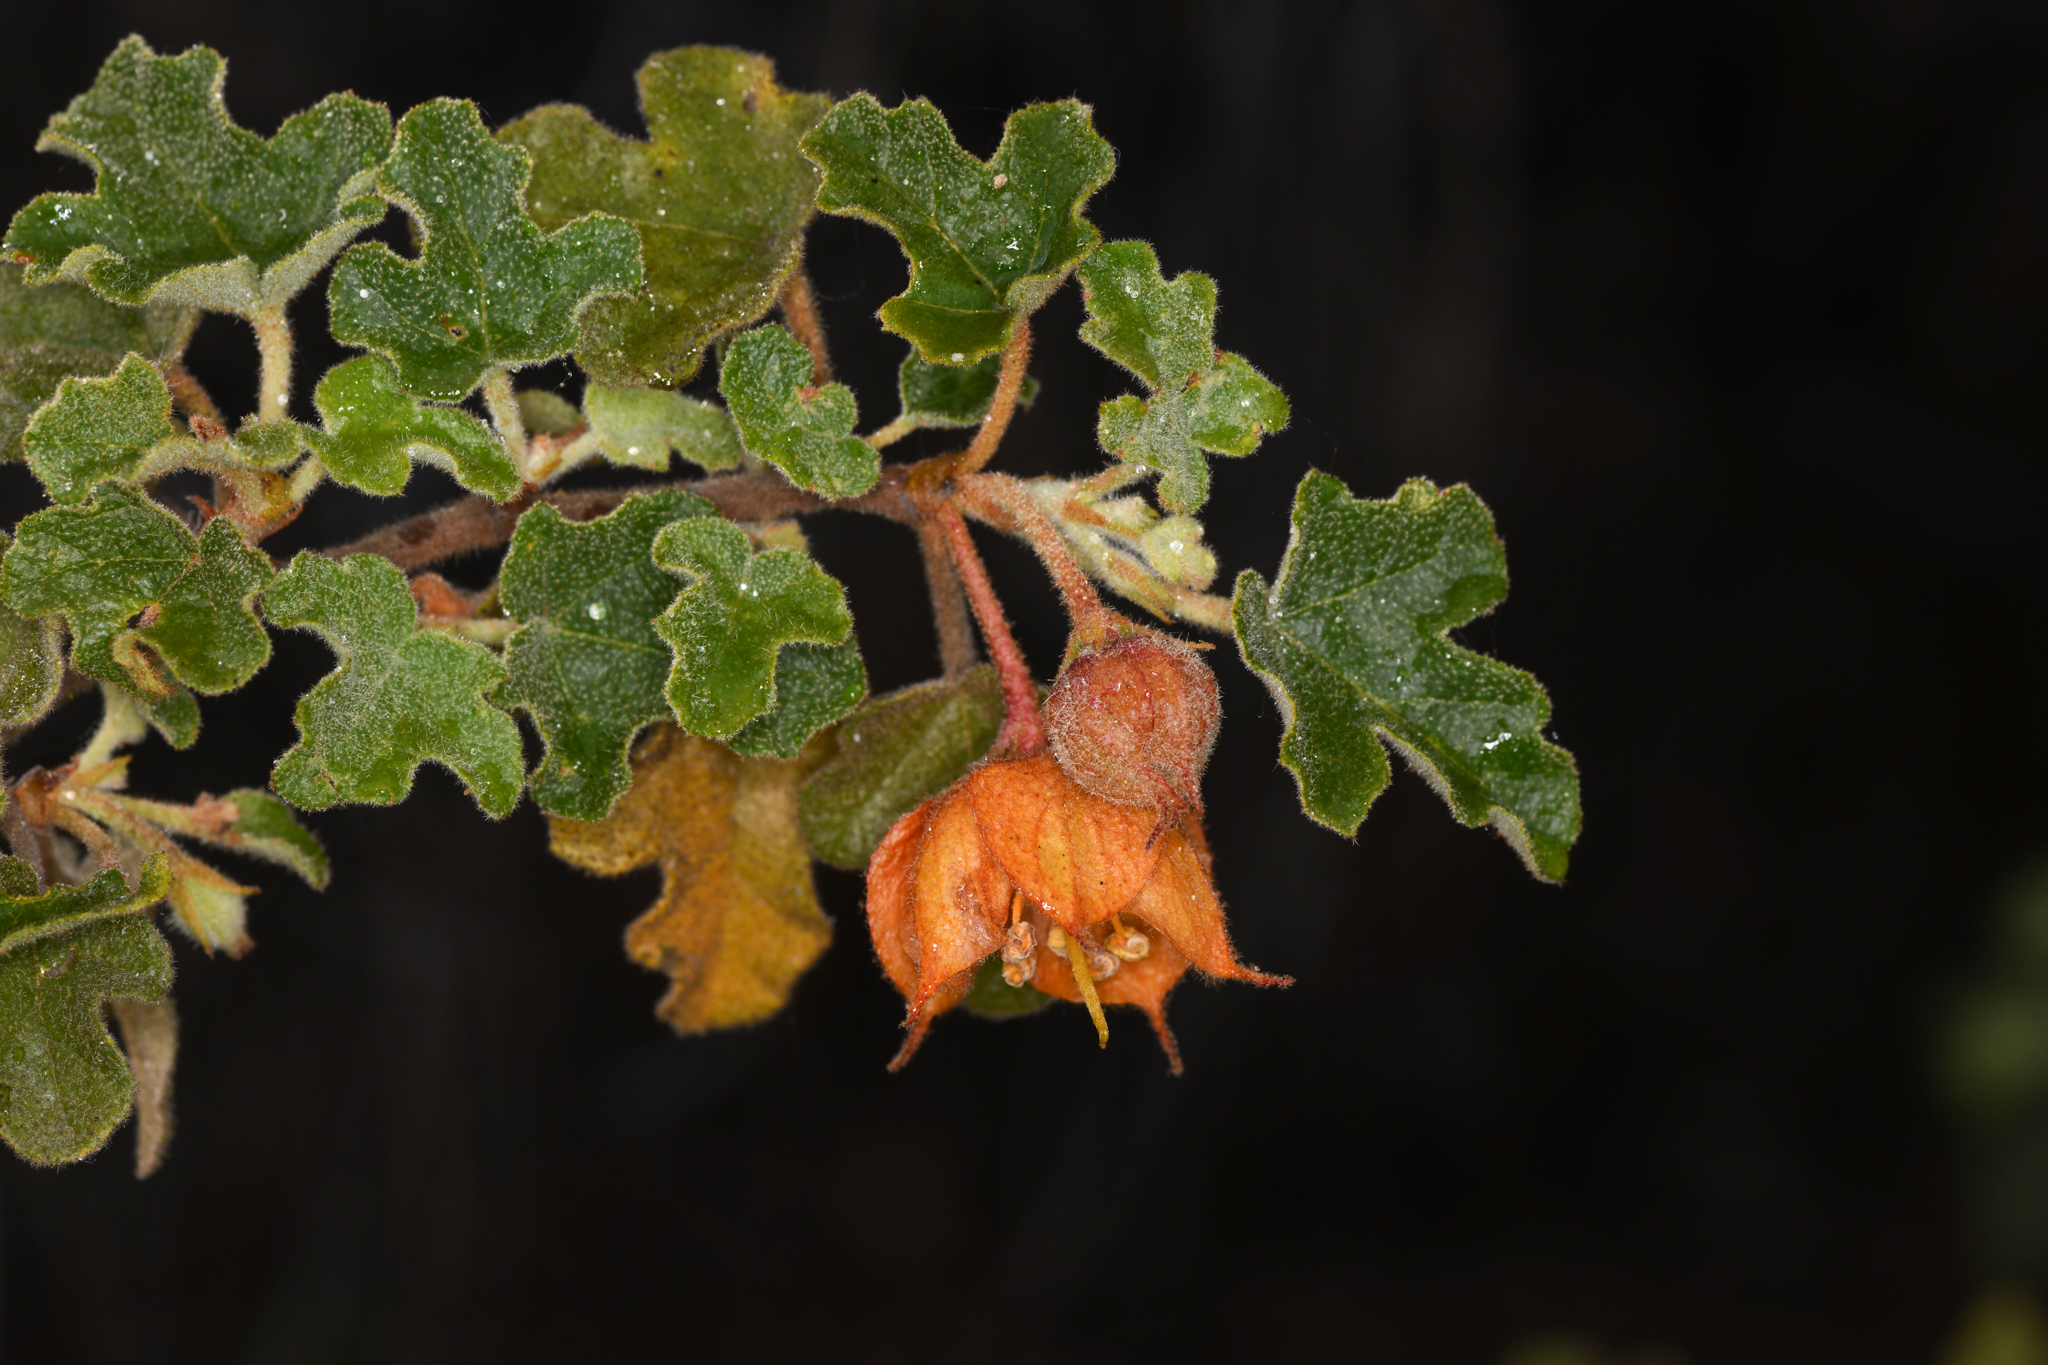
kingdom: Plantae
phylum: Tracheophyta
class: Magnoliopsida
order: Malvales
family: Malvaceae
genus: Fremontodendron
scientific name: Fremontodendron decumbens
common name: Pine hill flannelbush
